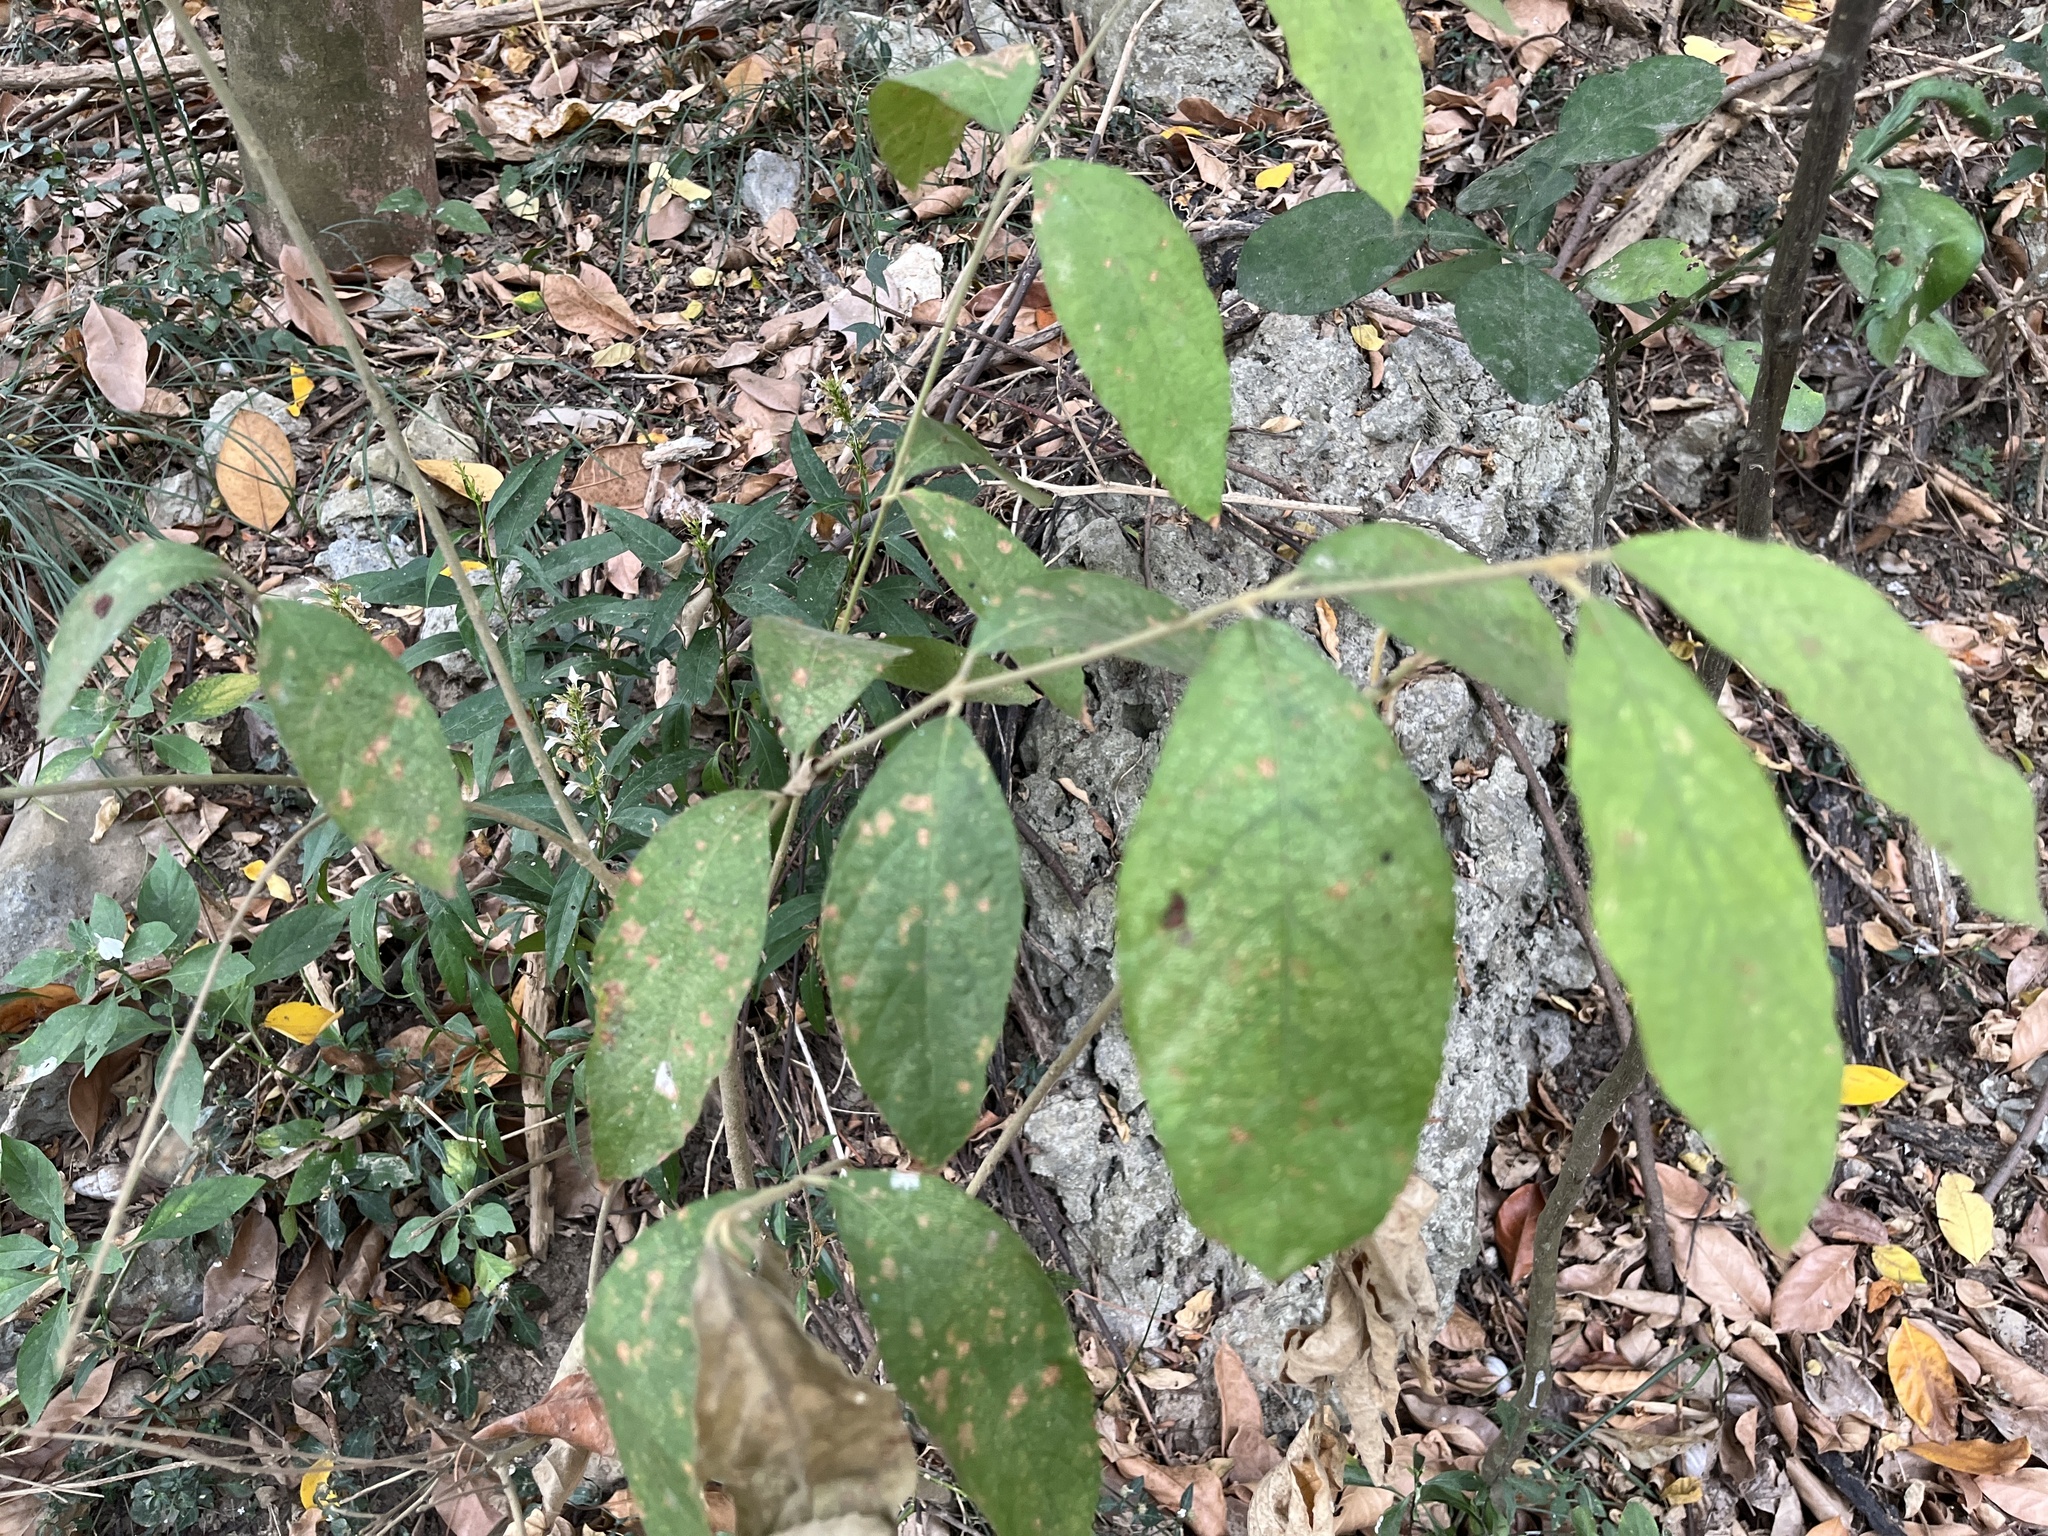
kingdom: Plantae
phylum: Tracheophyta
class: Magnoliopsida
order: Lamiales
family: Lamiaceae
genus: Callicarpa
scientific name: Callicarpa pedunculata
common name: Velvetleaf
